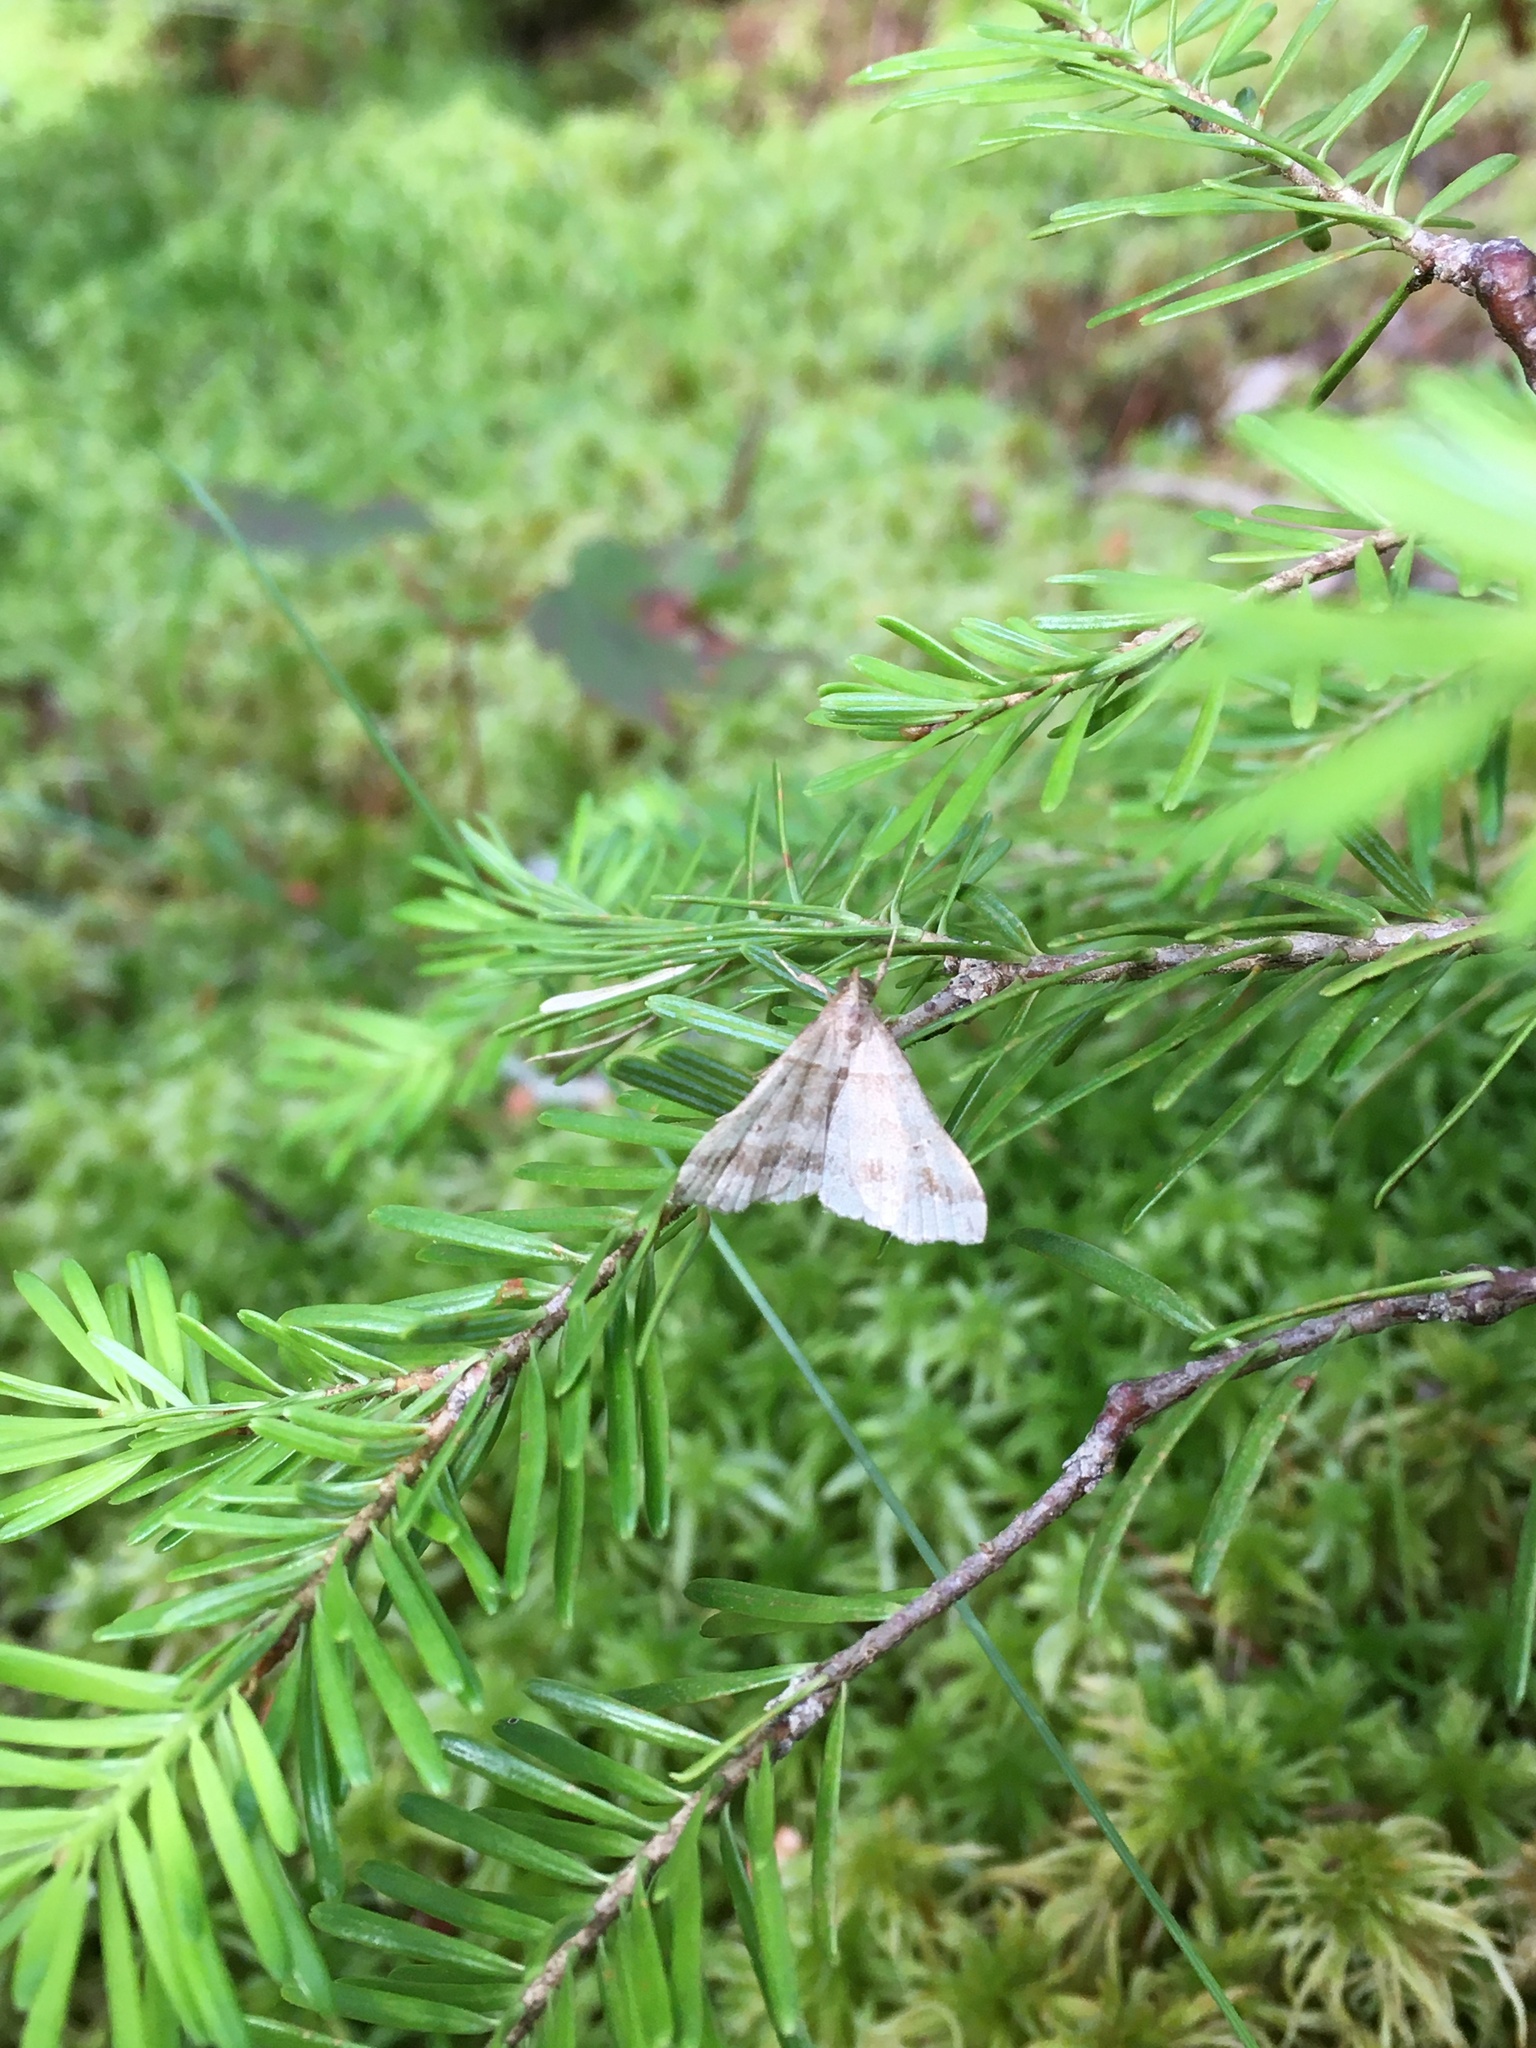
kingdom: Animalia
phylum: Arthropoda
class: Insecta
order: Lepidoptera
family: Erebidae
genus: Phaeolita
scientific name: Phaeolita pyramusalis
